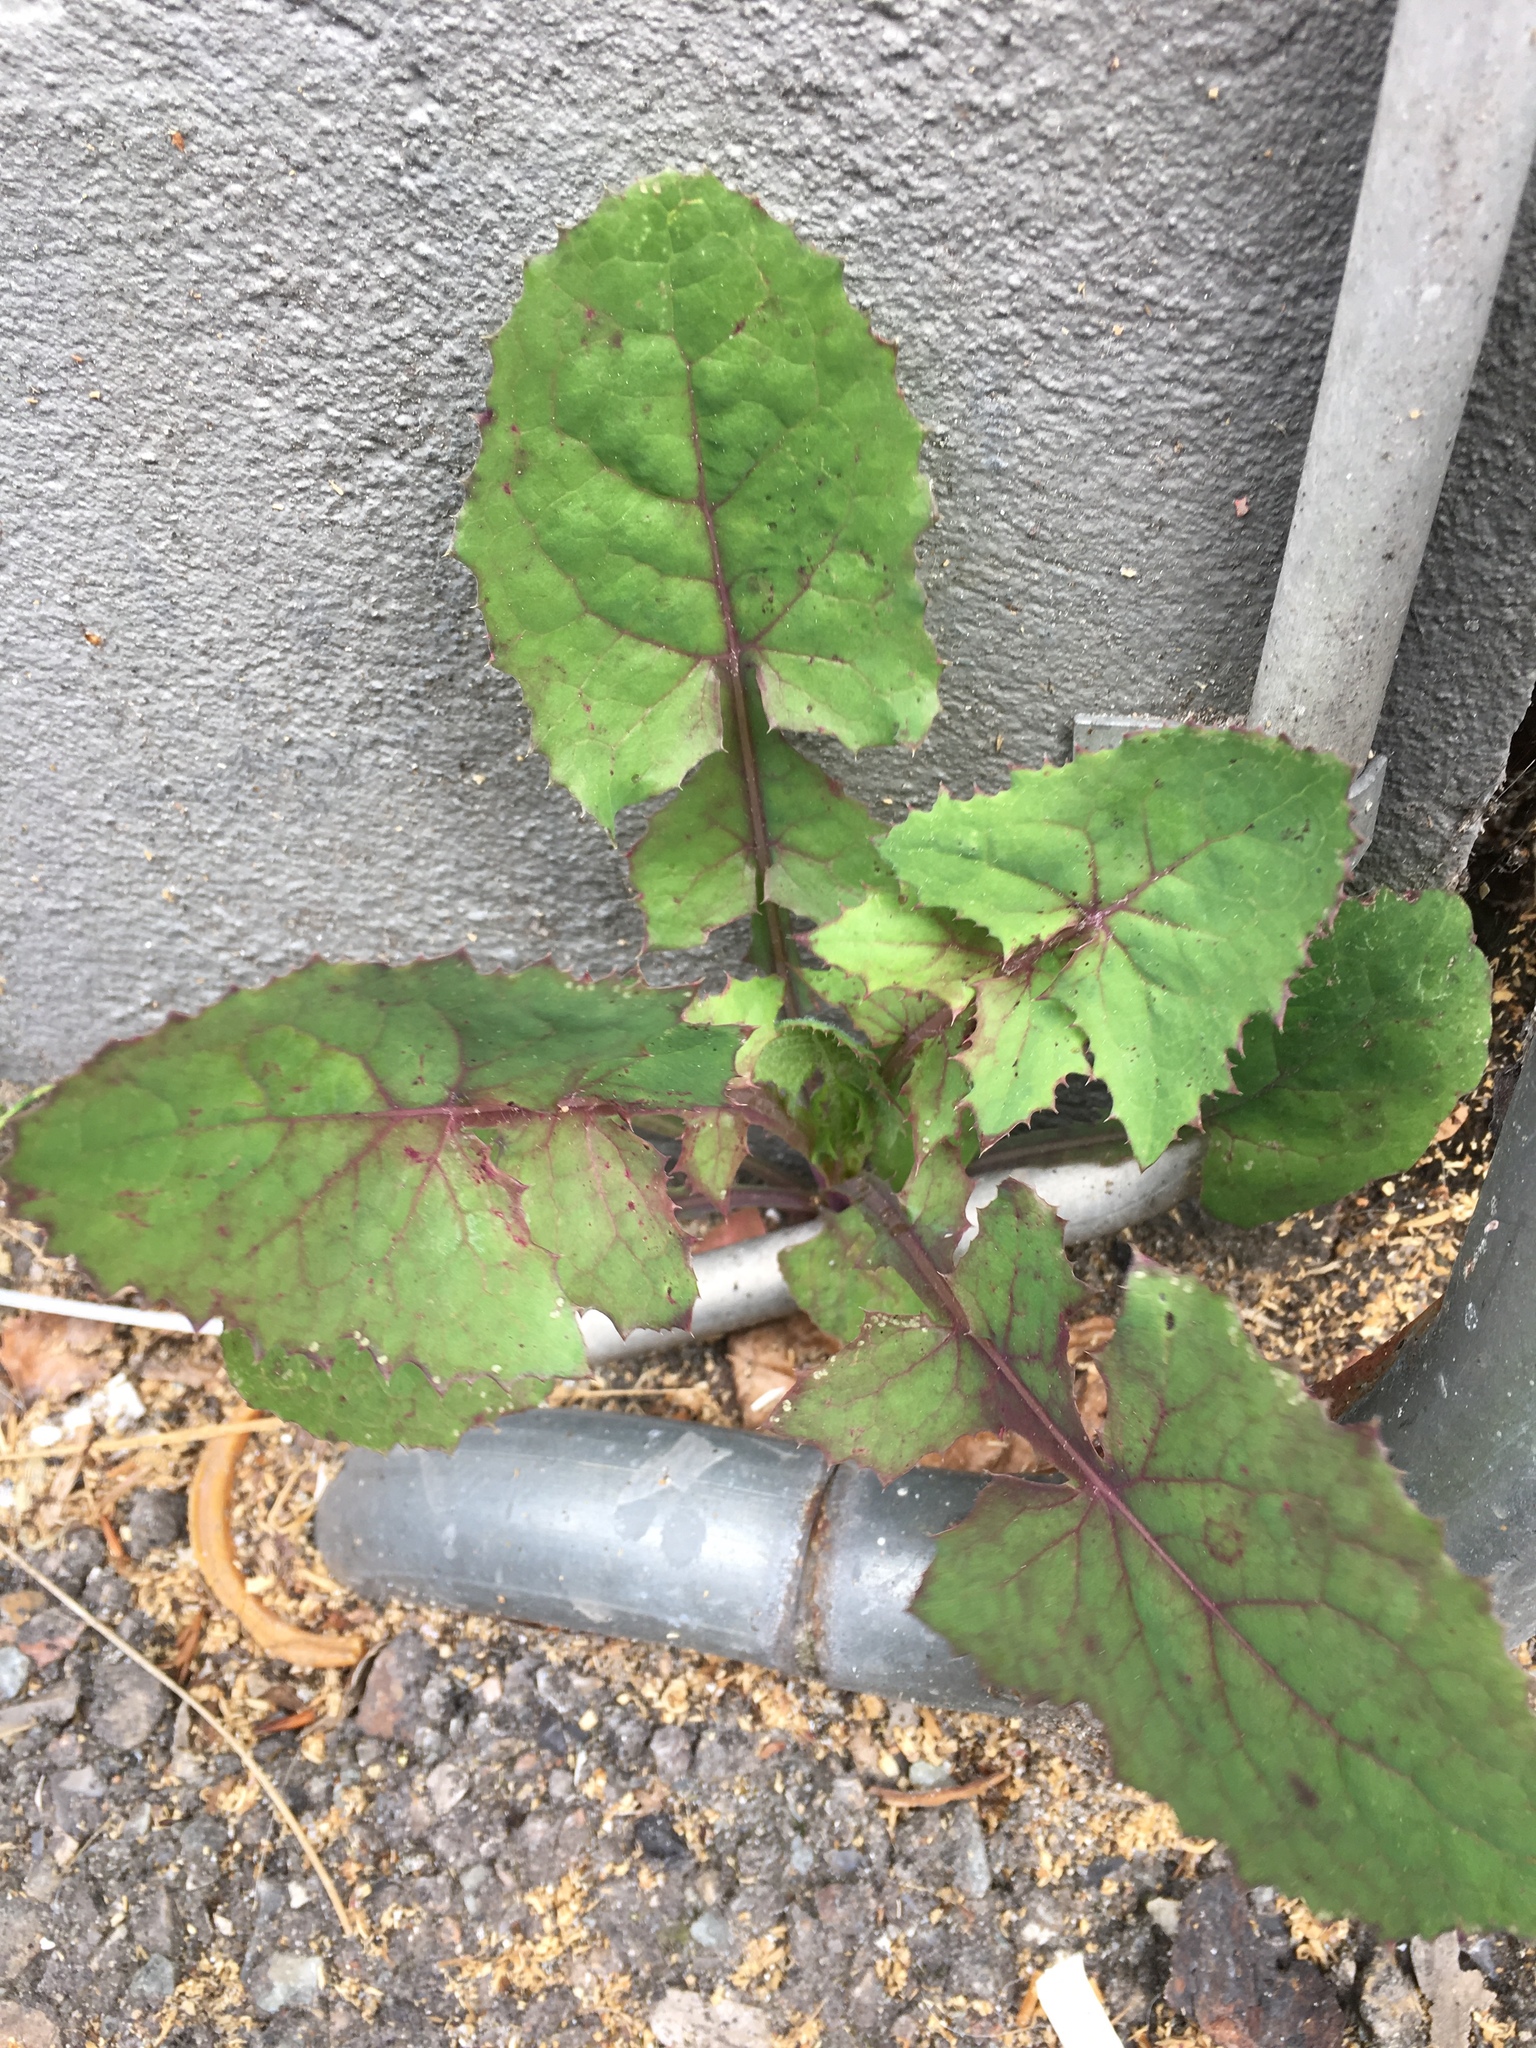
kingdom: Plantae
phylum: Tracheophyta
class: Magnoliopsida
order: Asterales
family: Asteraceae
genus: Sonchus
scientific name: Sonchus oleraceus
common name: Common sowthistle
